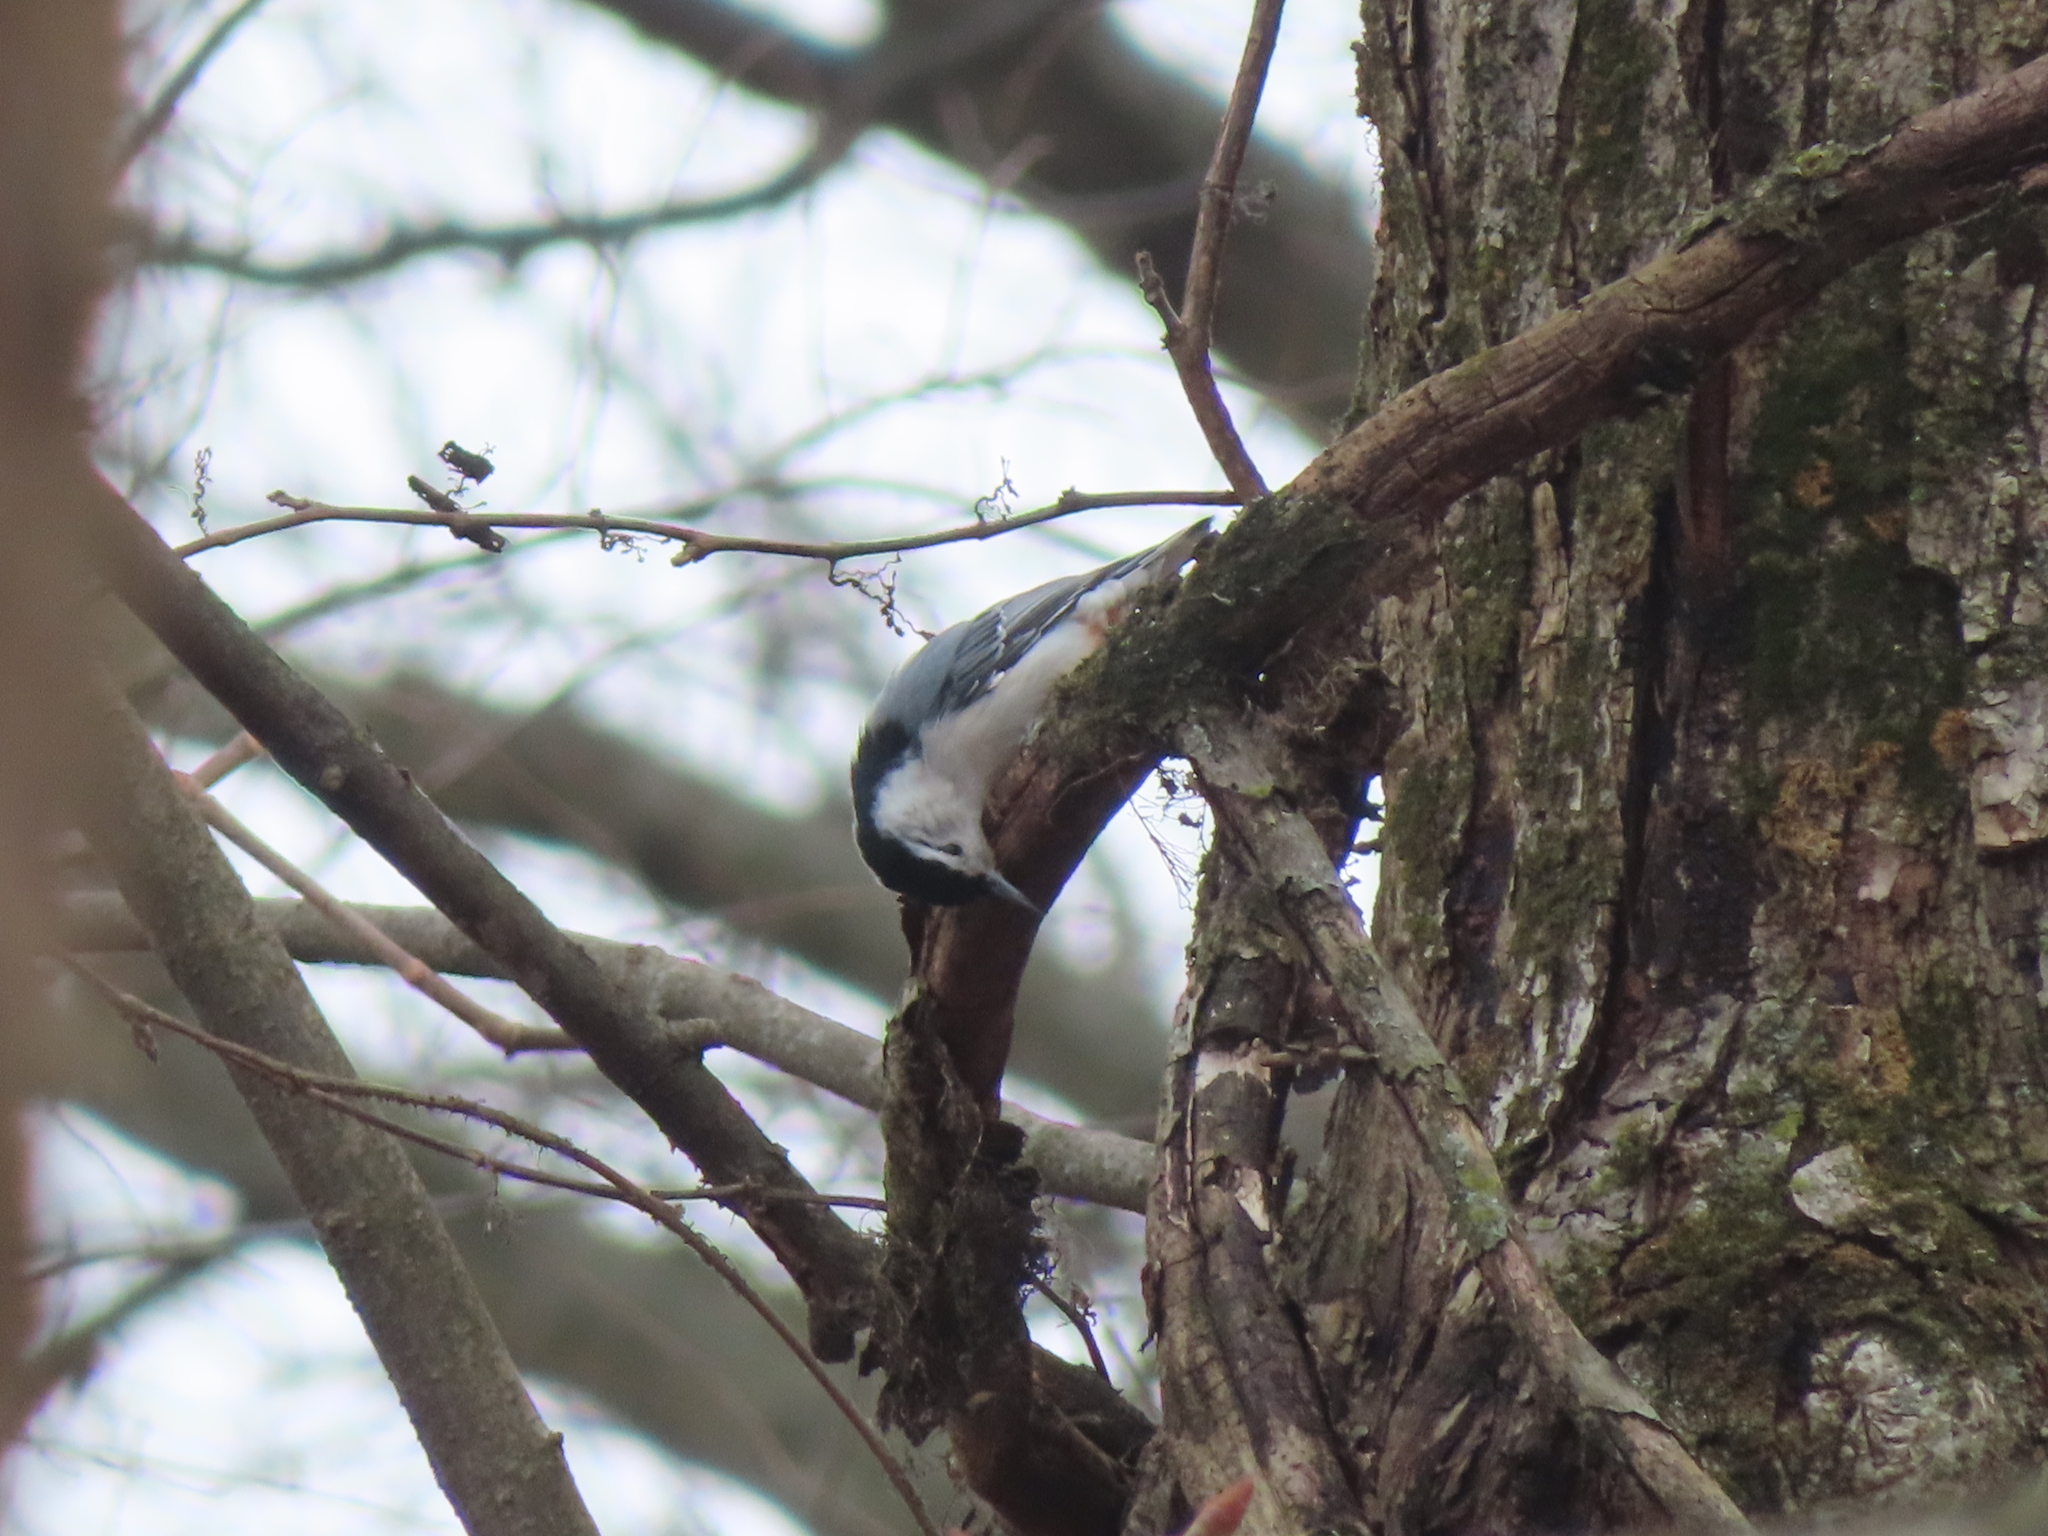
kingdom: Animalia
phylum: Chordata
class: Aves
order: Passeriformes
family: Sittidae
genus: Sitta
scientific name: Sitta carolinensis
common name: White-breasted nuthatch
